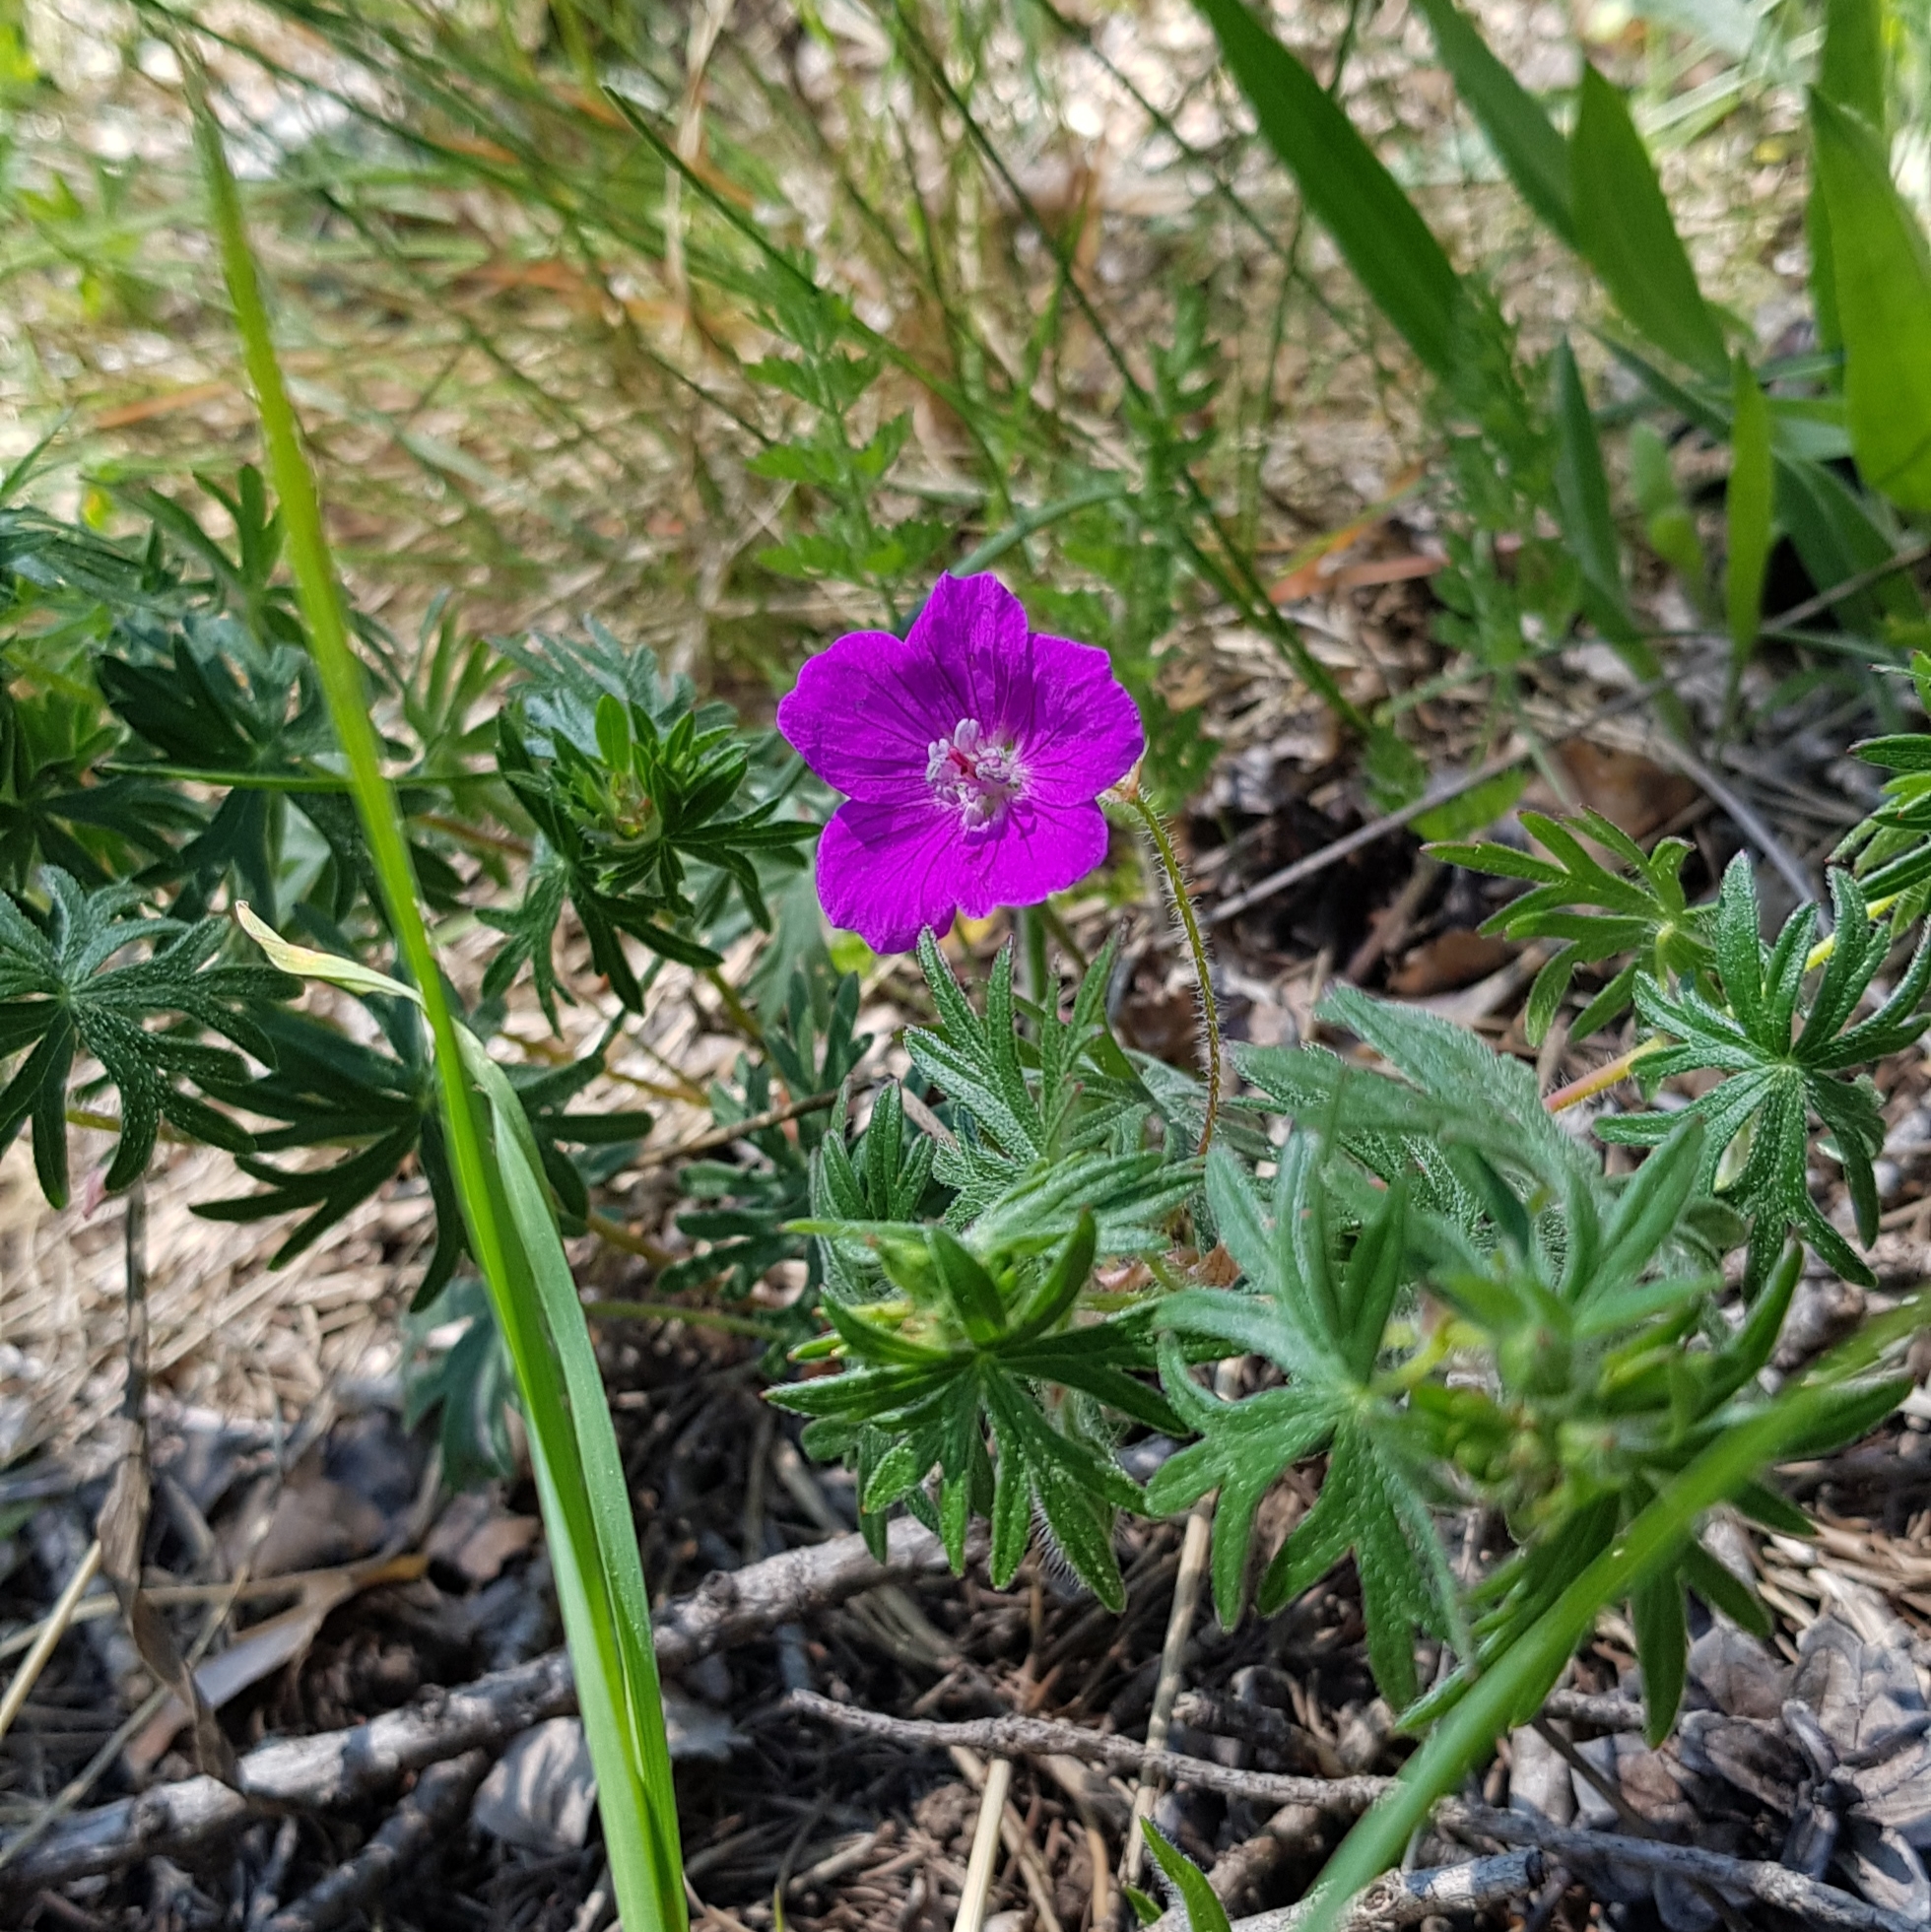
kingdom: Plantae
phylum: Tracheophyta
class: Magnoliopsida
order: Geraniales
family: Geraniaceae
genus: Geranium
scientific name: Geranium sanguineum
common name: Bloody crane's-bill
